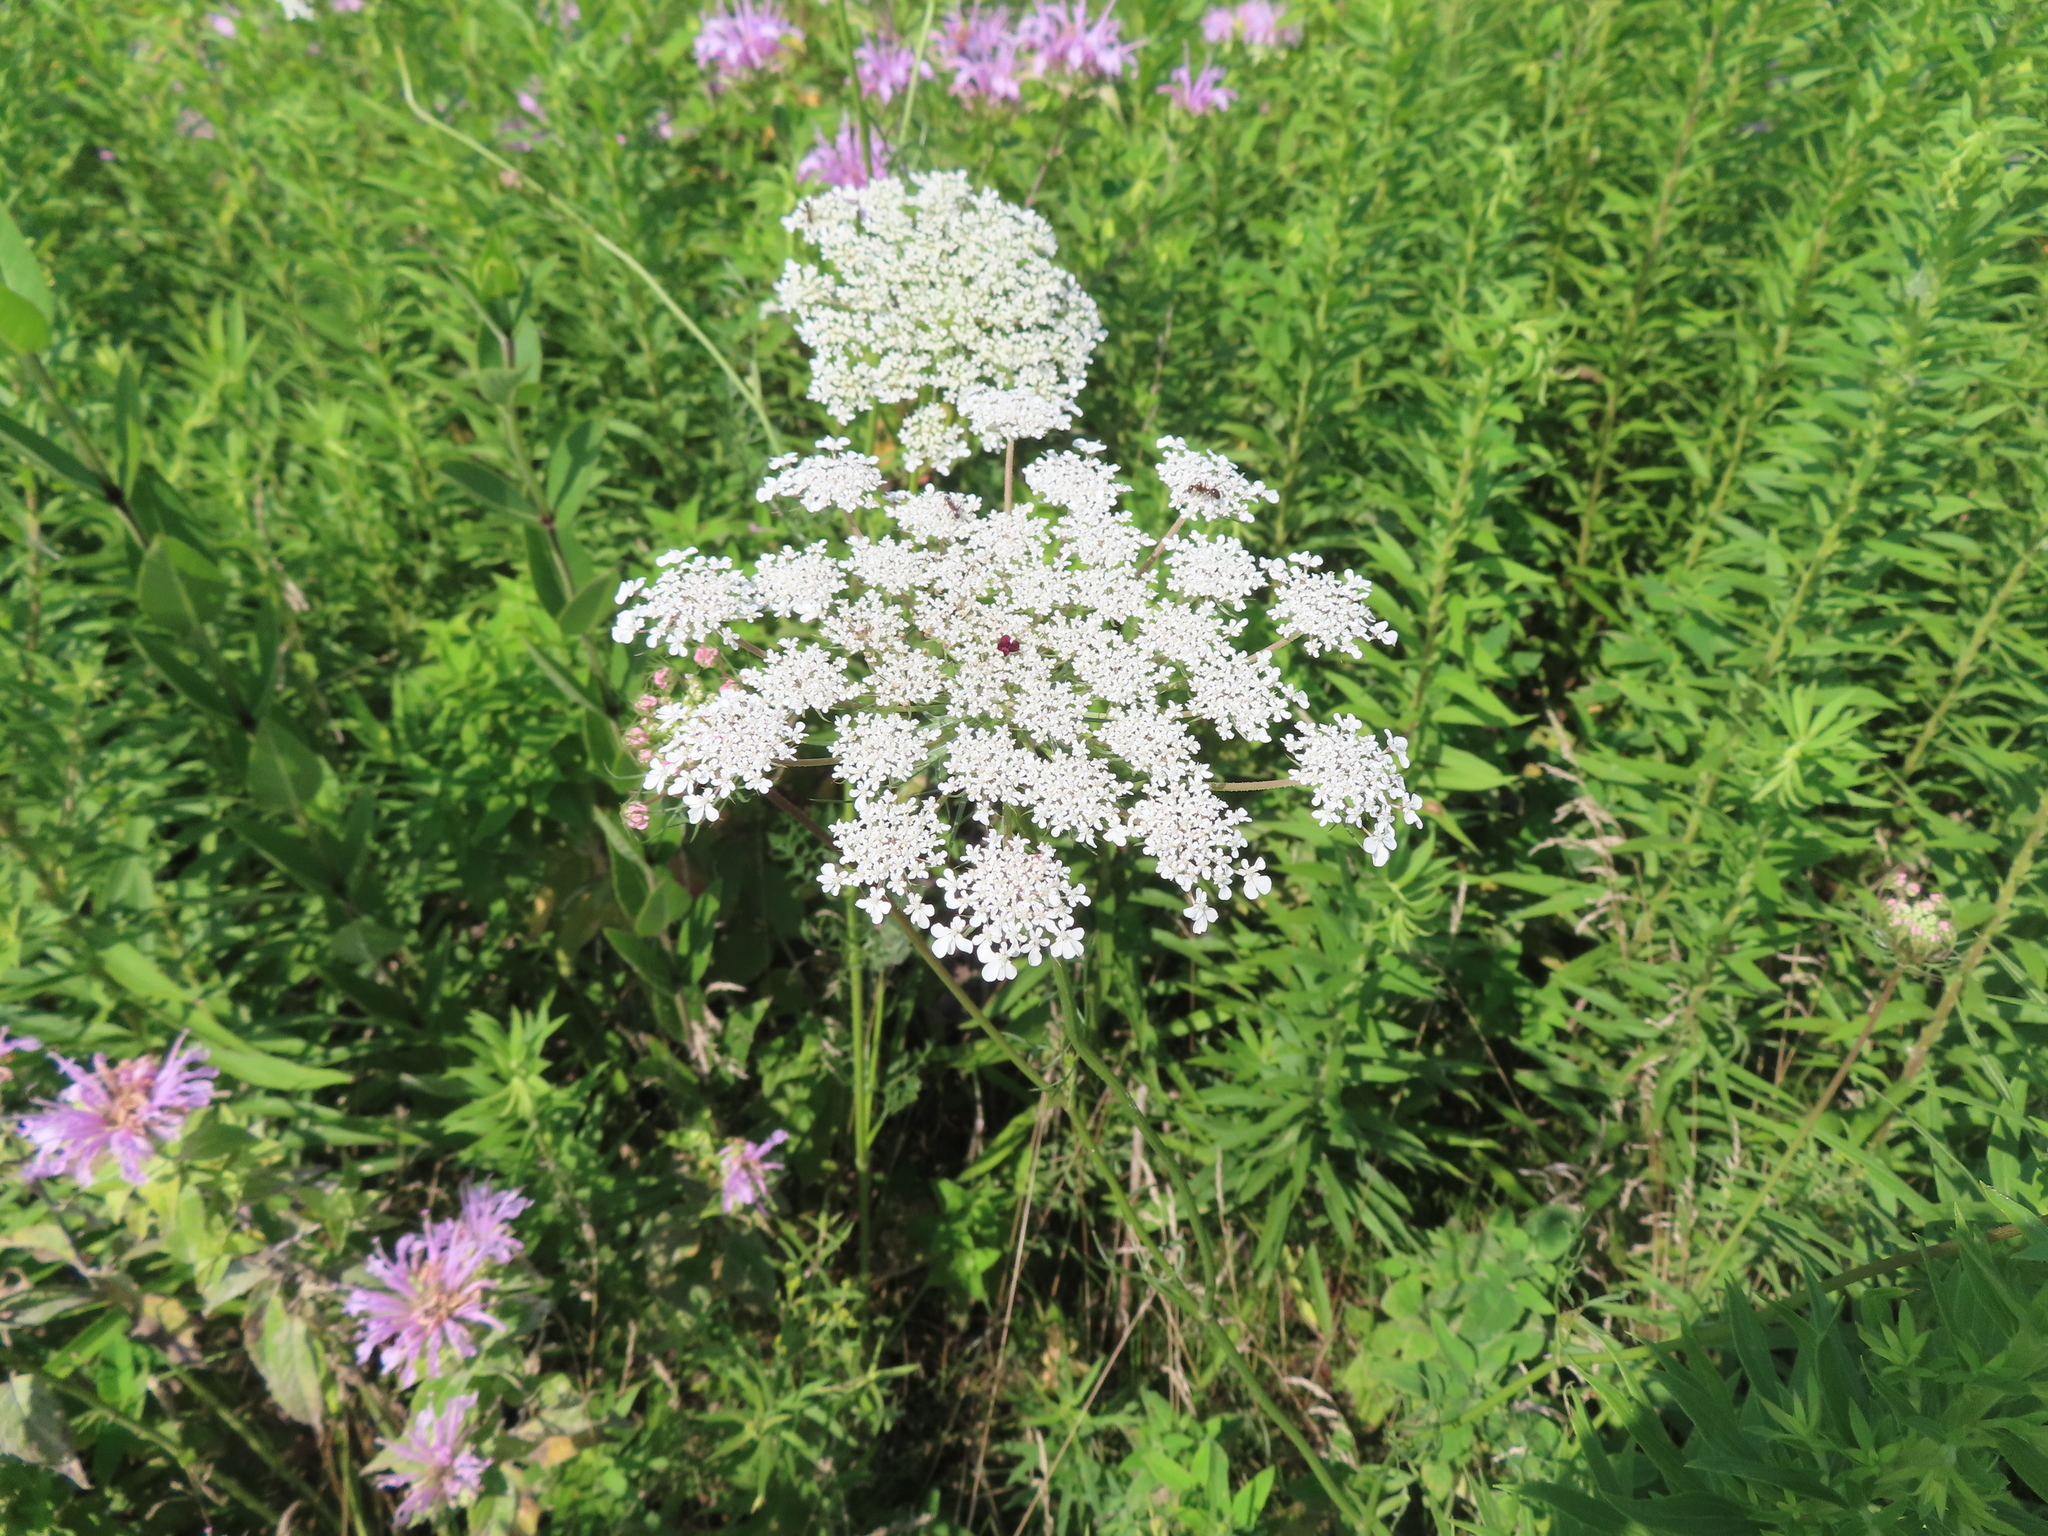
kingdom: Plantae
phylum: Tracheophyta
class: Magnoliopsida
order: Apiales
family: Apiaceae
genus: Daucus
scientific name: Daucus carota
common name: Wild carrot
